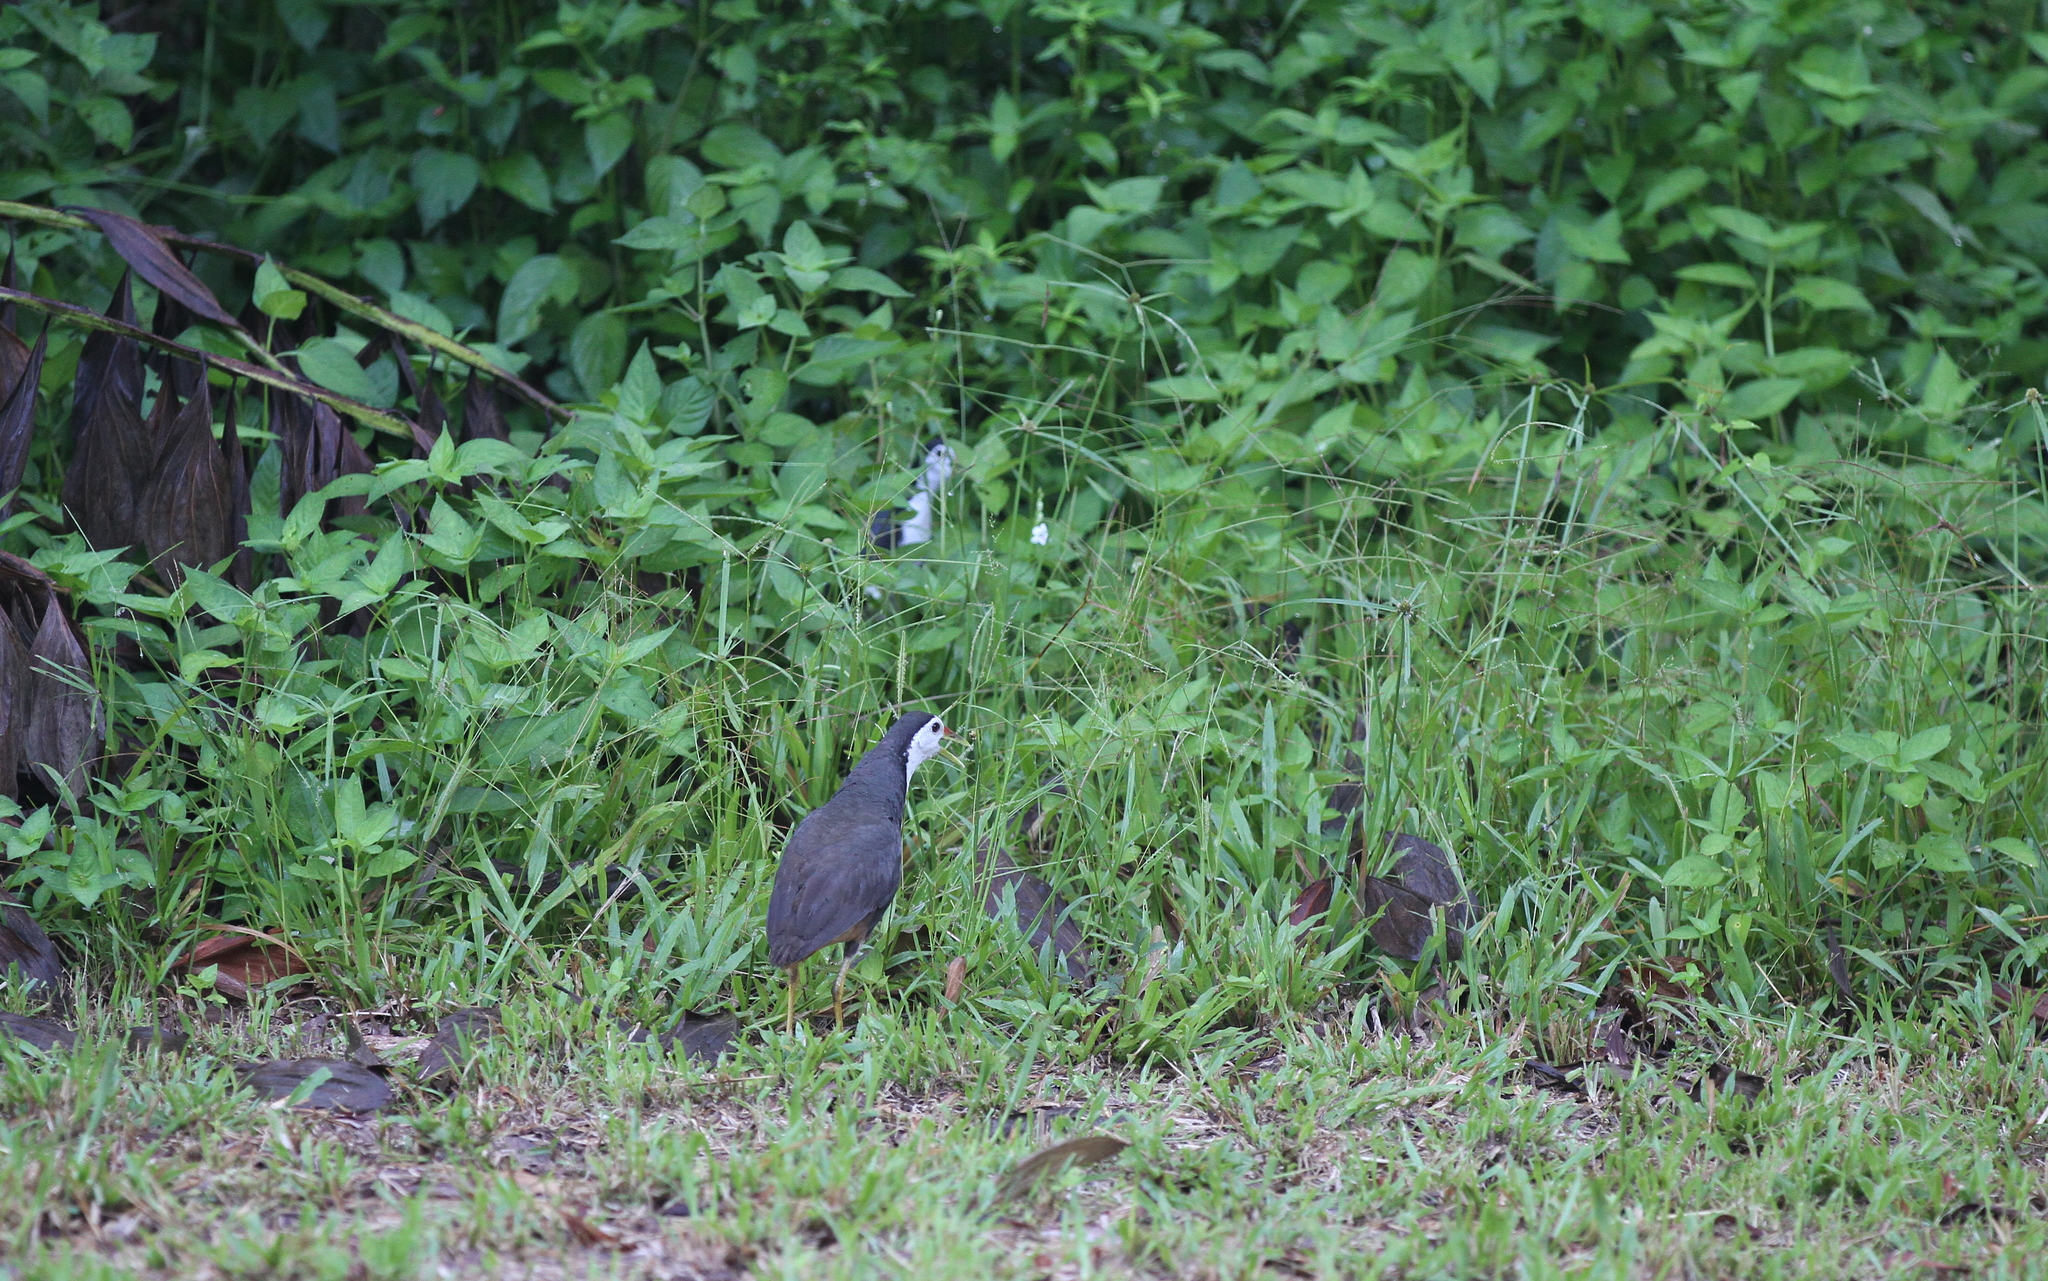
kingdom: Animalia
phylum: Chordata
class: Aves
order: Gruiformes
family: Rallidae
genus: Amaurornis
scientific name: Amaurornis phoenicurus
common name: White-breasted waterhen
